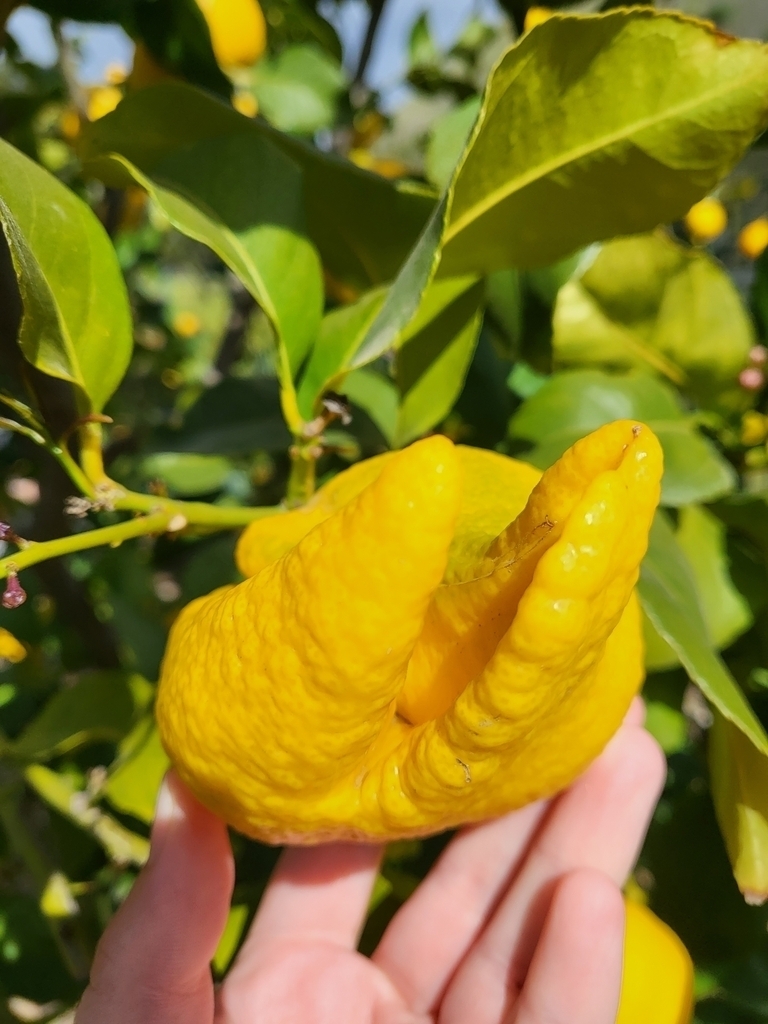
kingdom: Animalia
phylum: Arthropoda
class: Arachnida
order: Trombidiformes
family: Eriophyidae
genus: Aceria
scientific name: Aceria sheldoni
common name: Citrus bud mite
